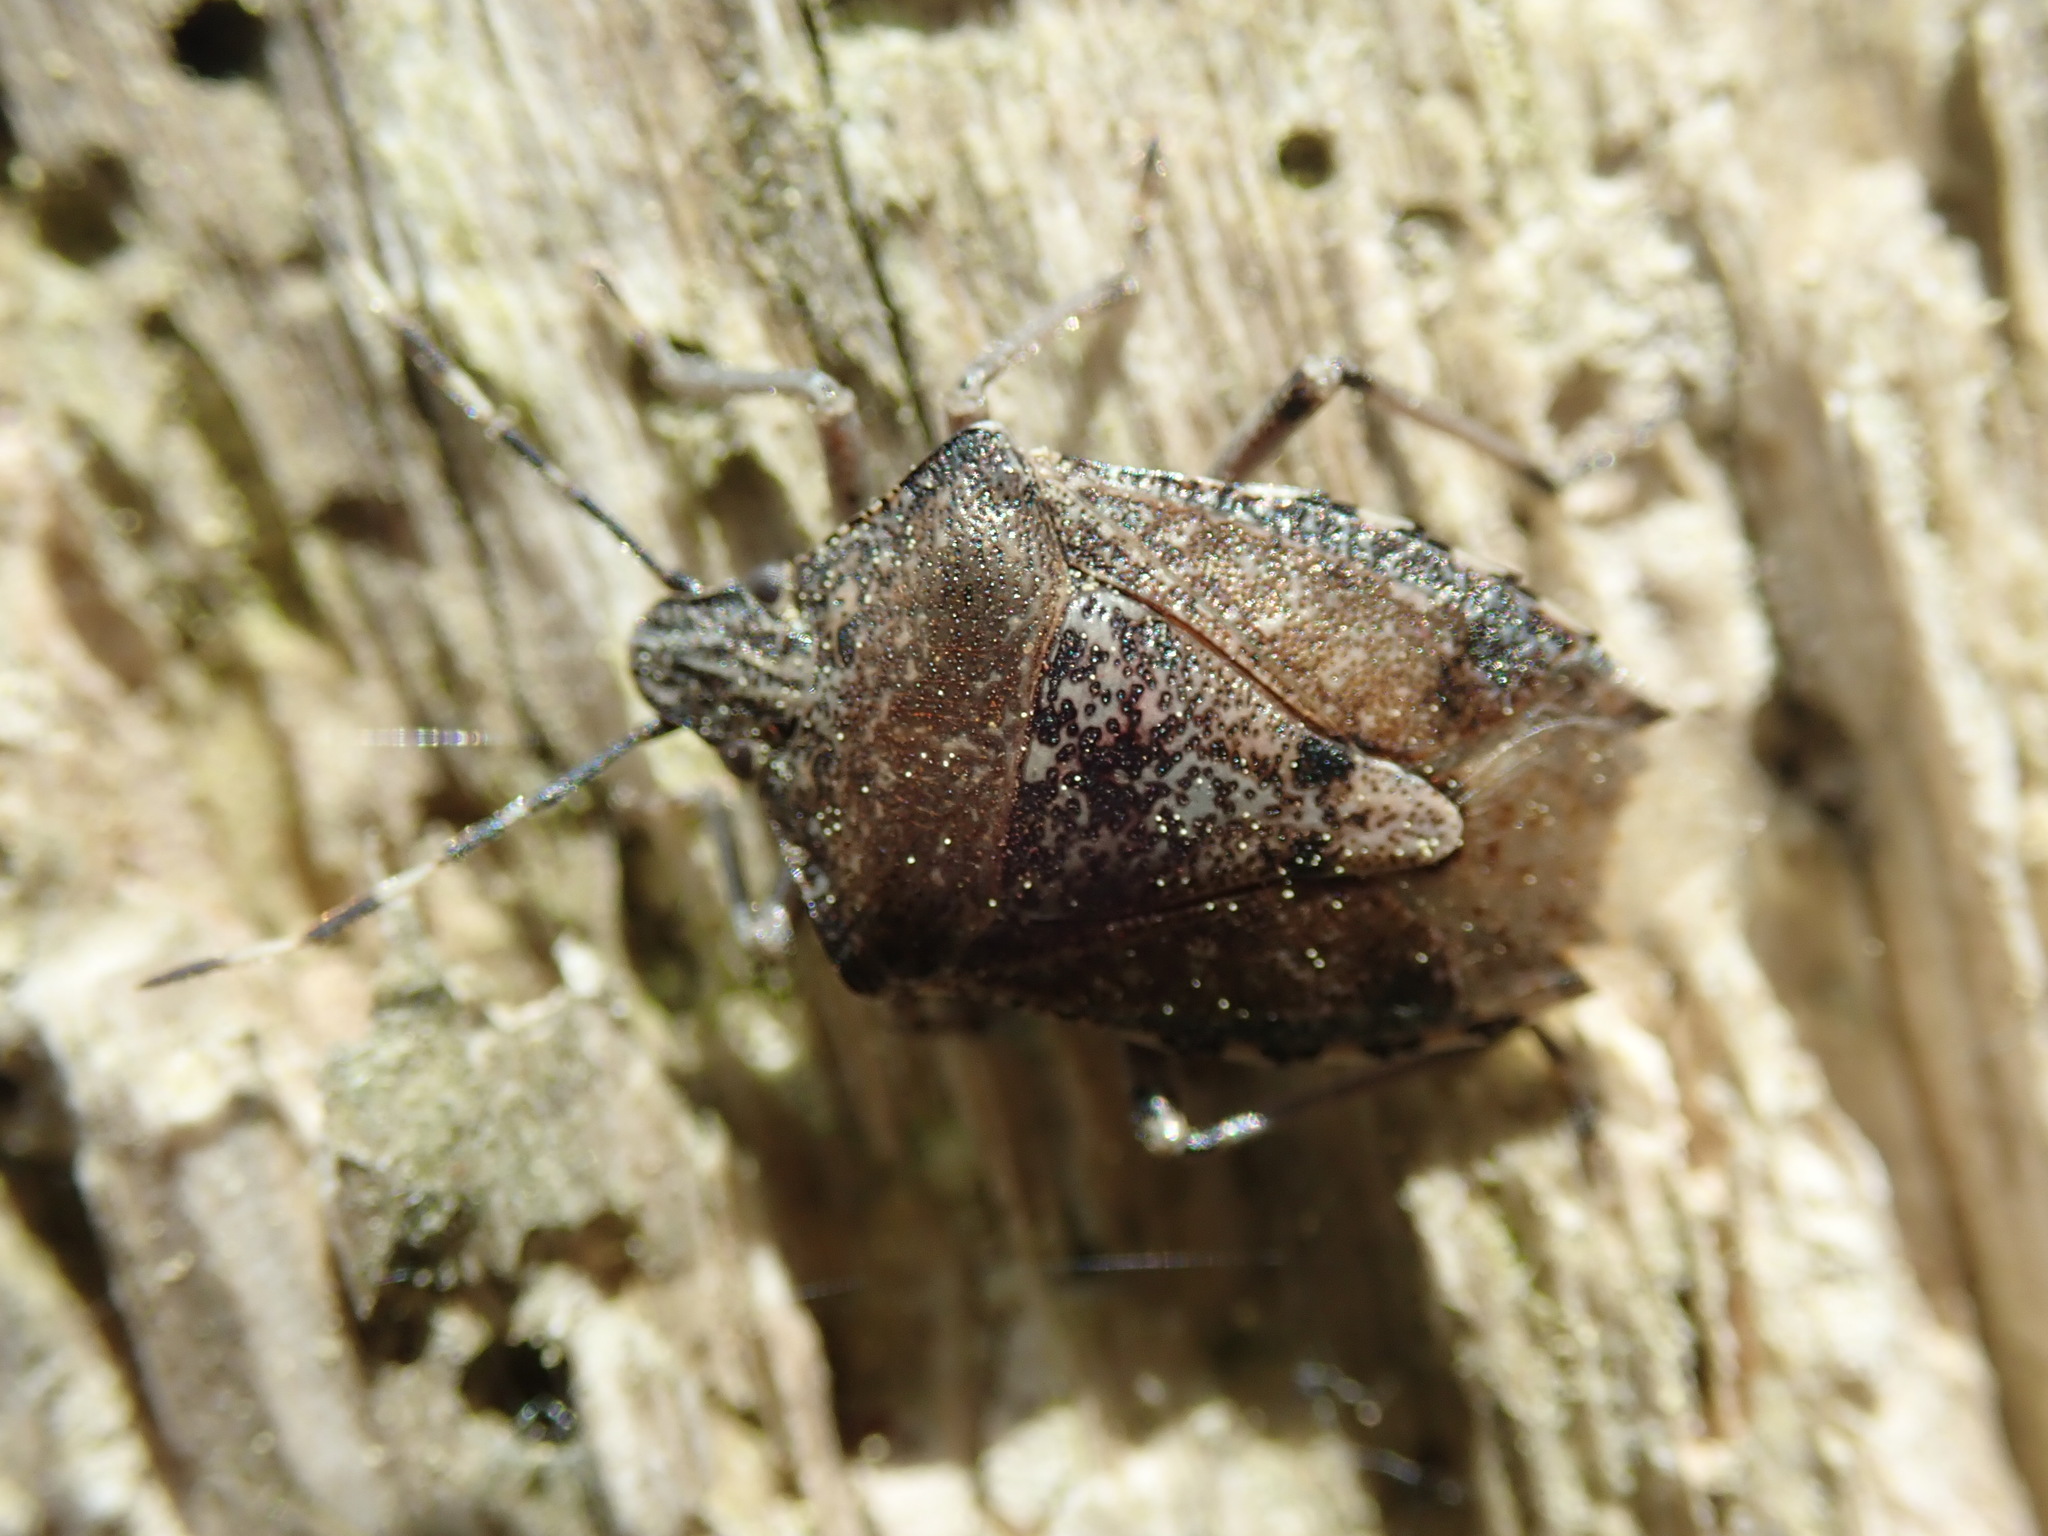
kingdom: Animalia
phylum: Arthropoda
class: Insecta
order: Hemiptera
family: Pentatomidae
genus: Rhaphigaster
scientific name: Rhaphigaster nebulosa
